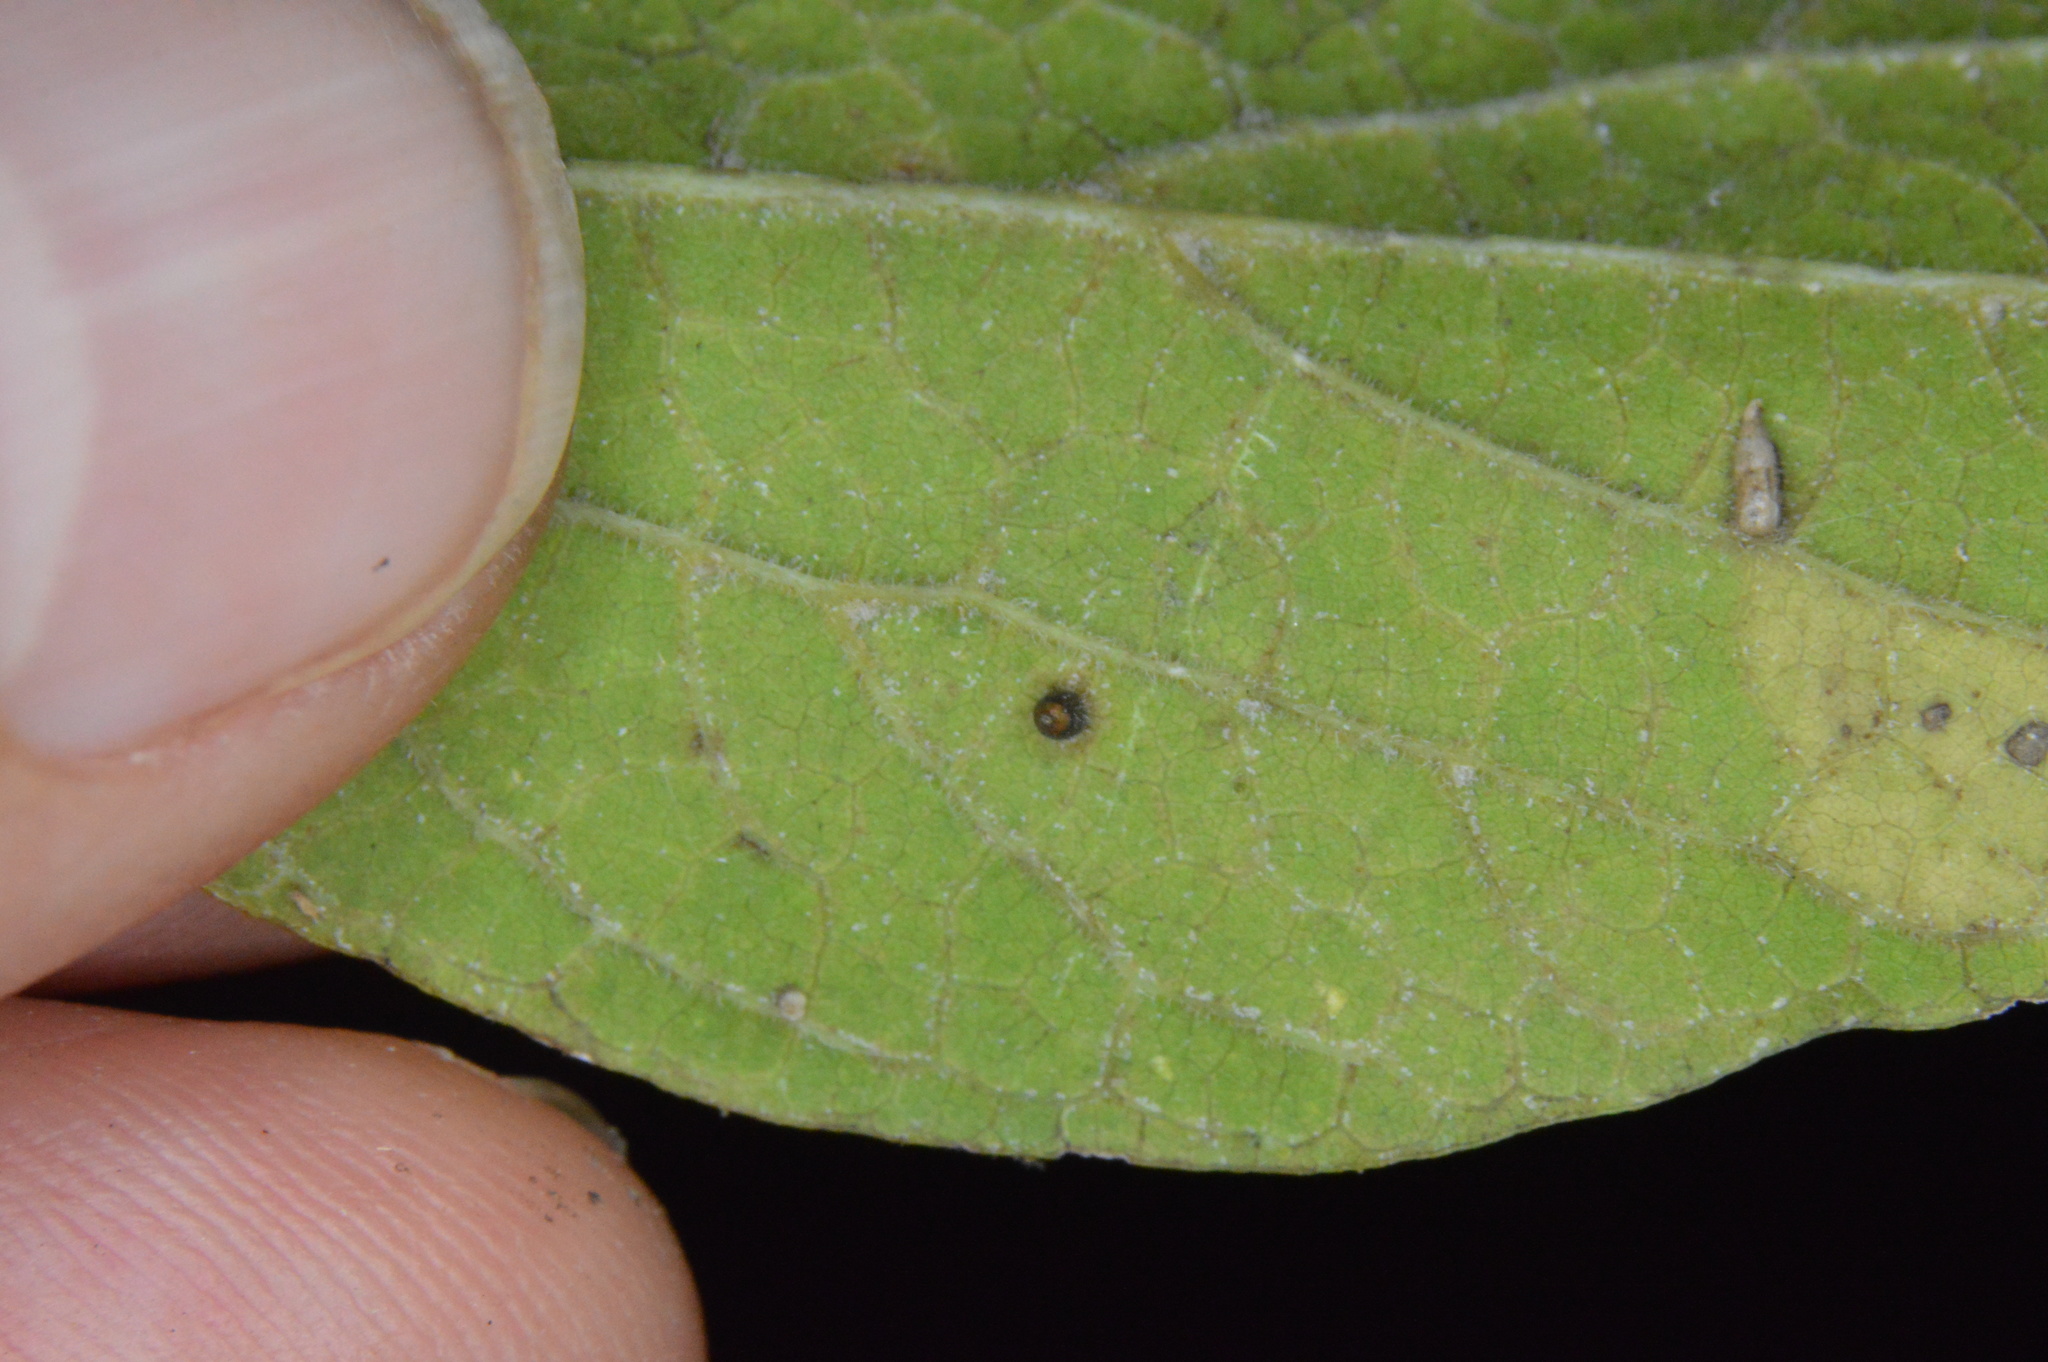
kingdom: Animalia
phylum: Arthropoda
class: Insecta
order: Diptera
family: Cecidomyiidae
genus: Celticecis
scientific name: Celticecis cupiformis
